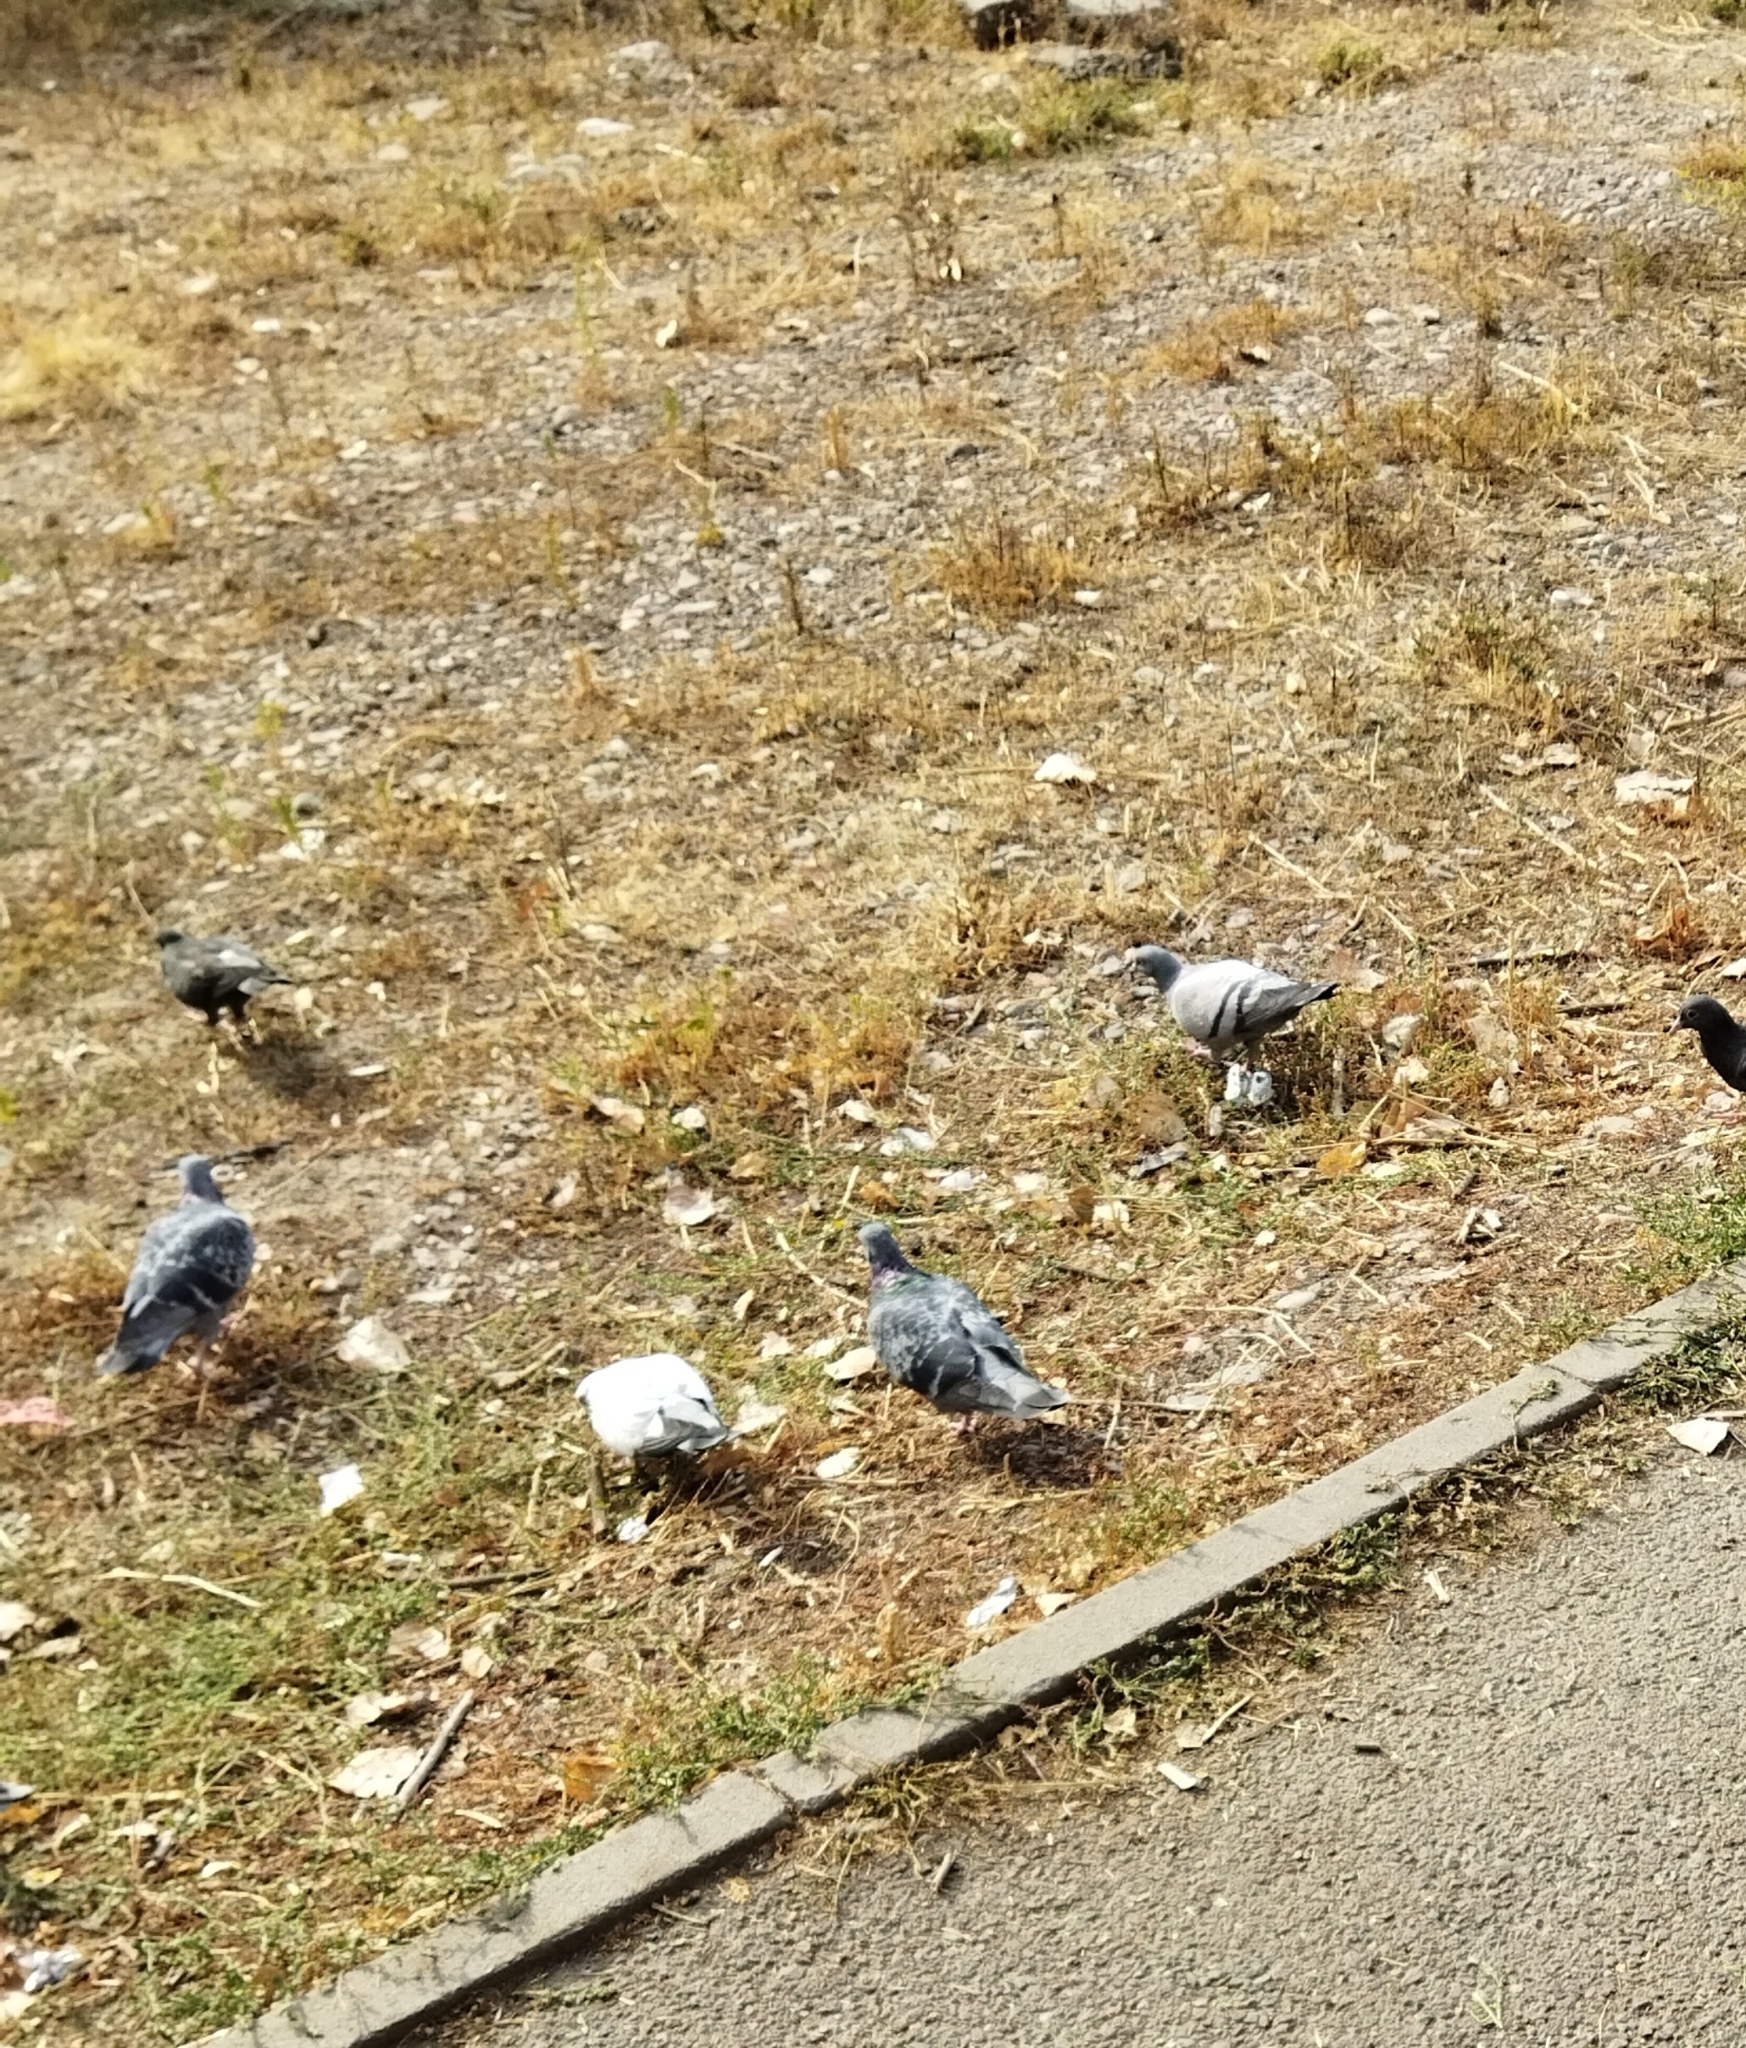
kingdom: Animalia
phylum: Chordata
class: Aves
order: Columbiformes
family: Columbidae
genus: Columba
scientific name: Columba livia
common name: Rock pigeon
